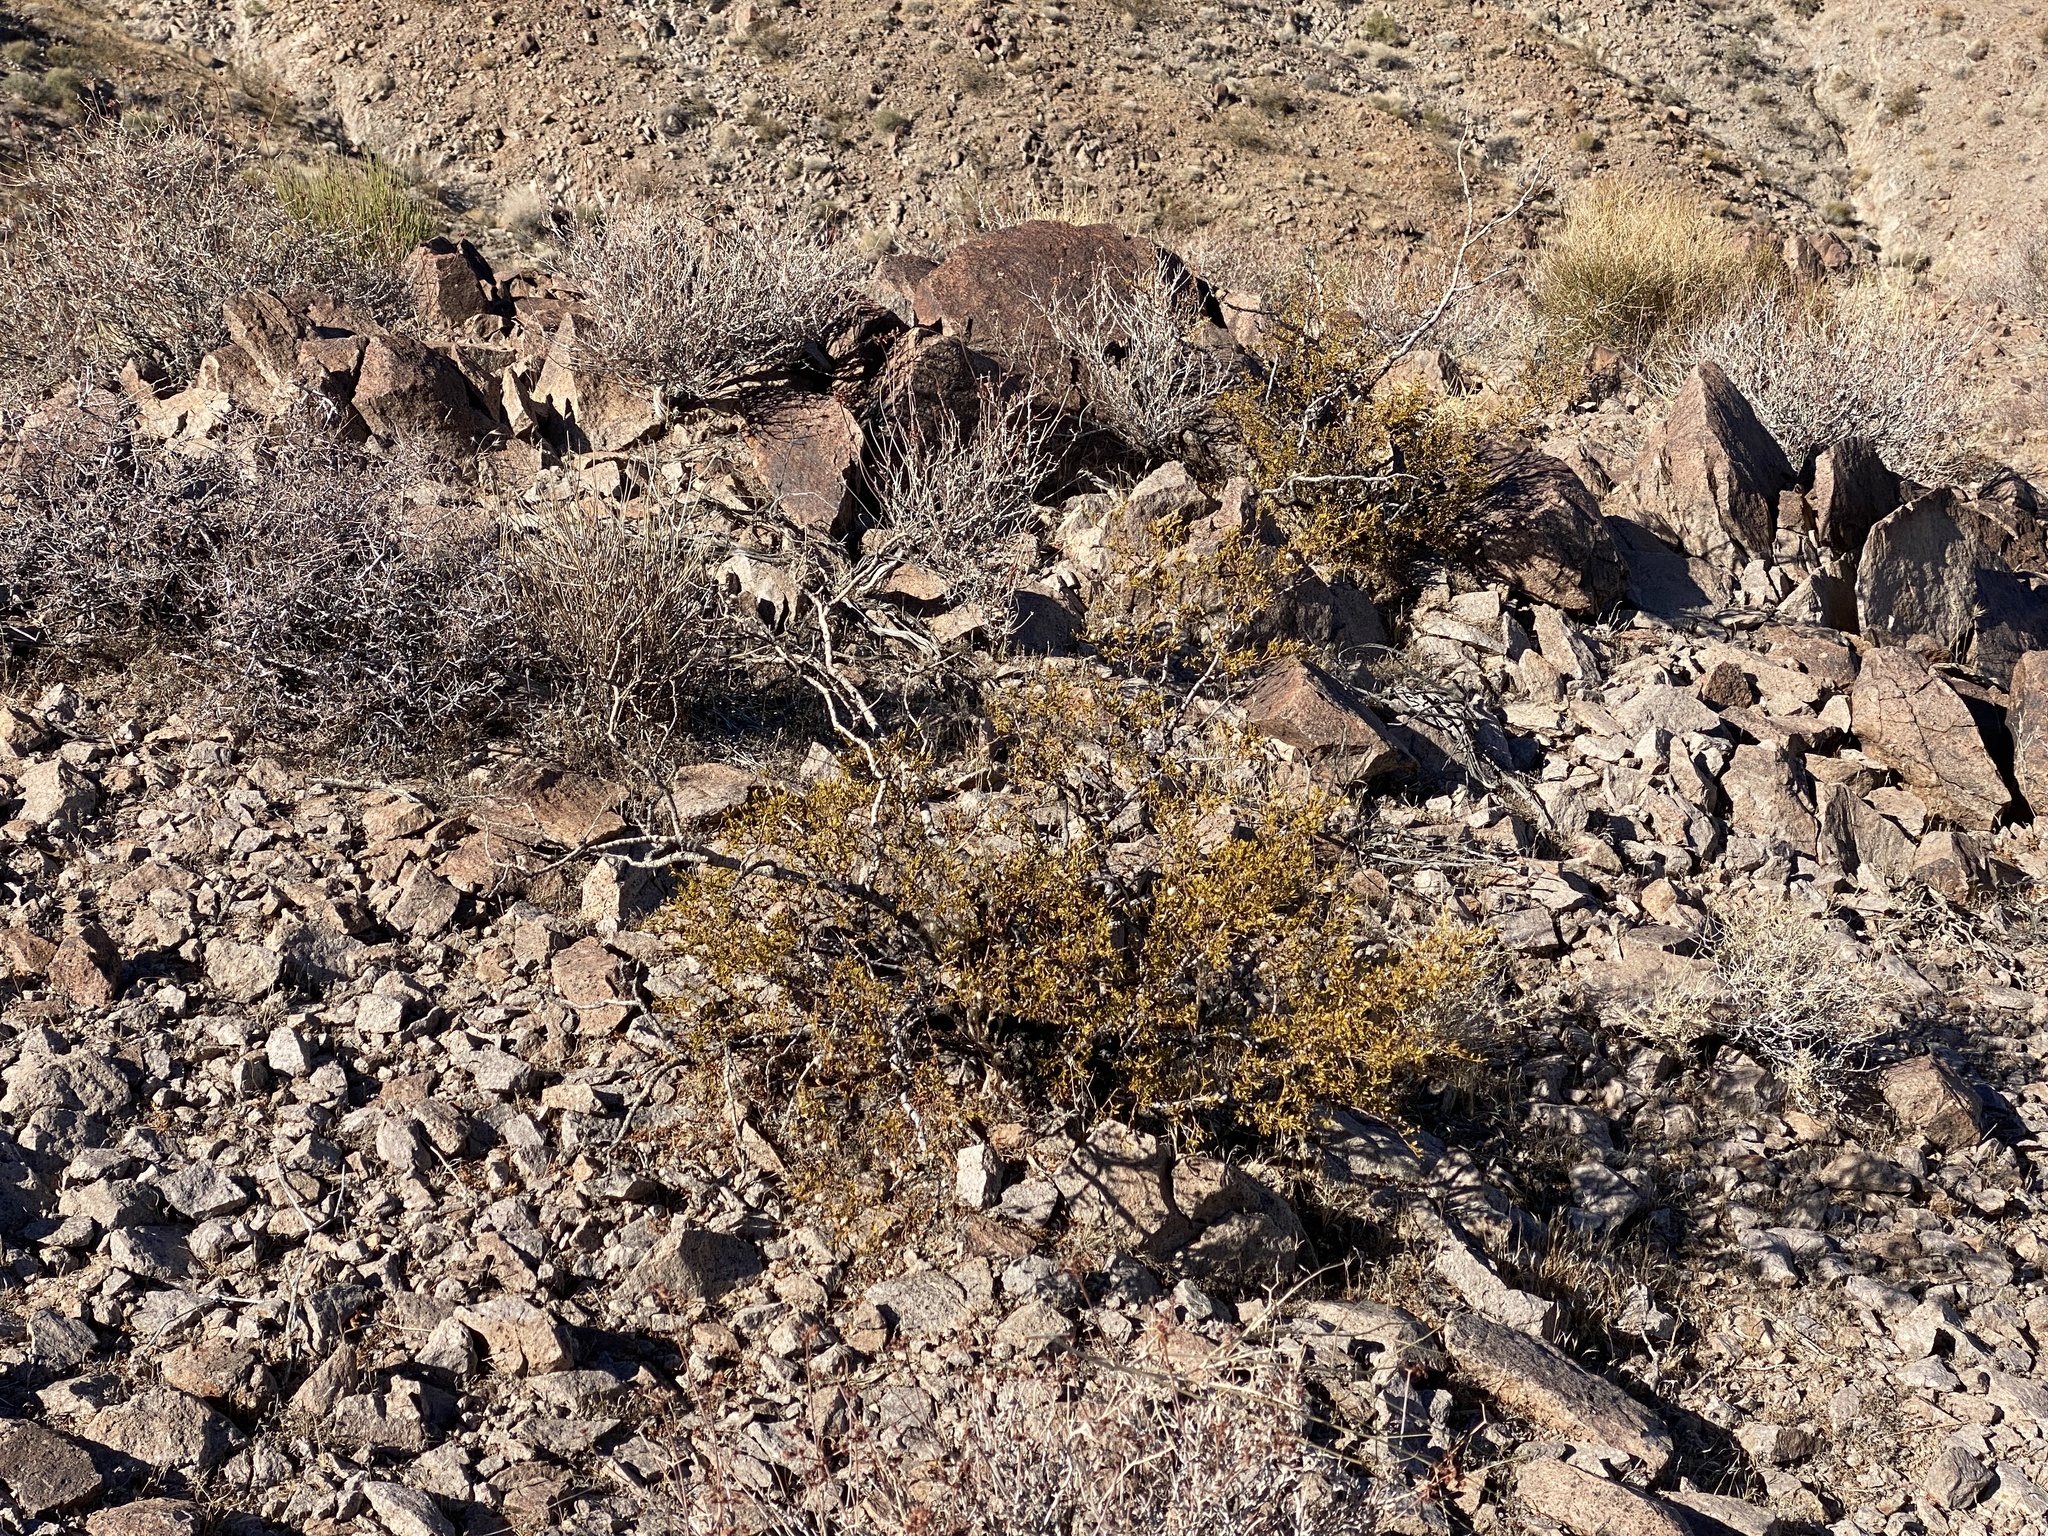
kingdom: Plantae
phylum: Tracheophyta
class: Magnoliopsida
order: Zygophyllales
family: Zygophyllaceae
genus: Larrea
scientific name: Larrea tridentata
